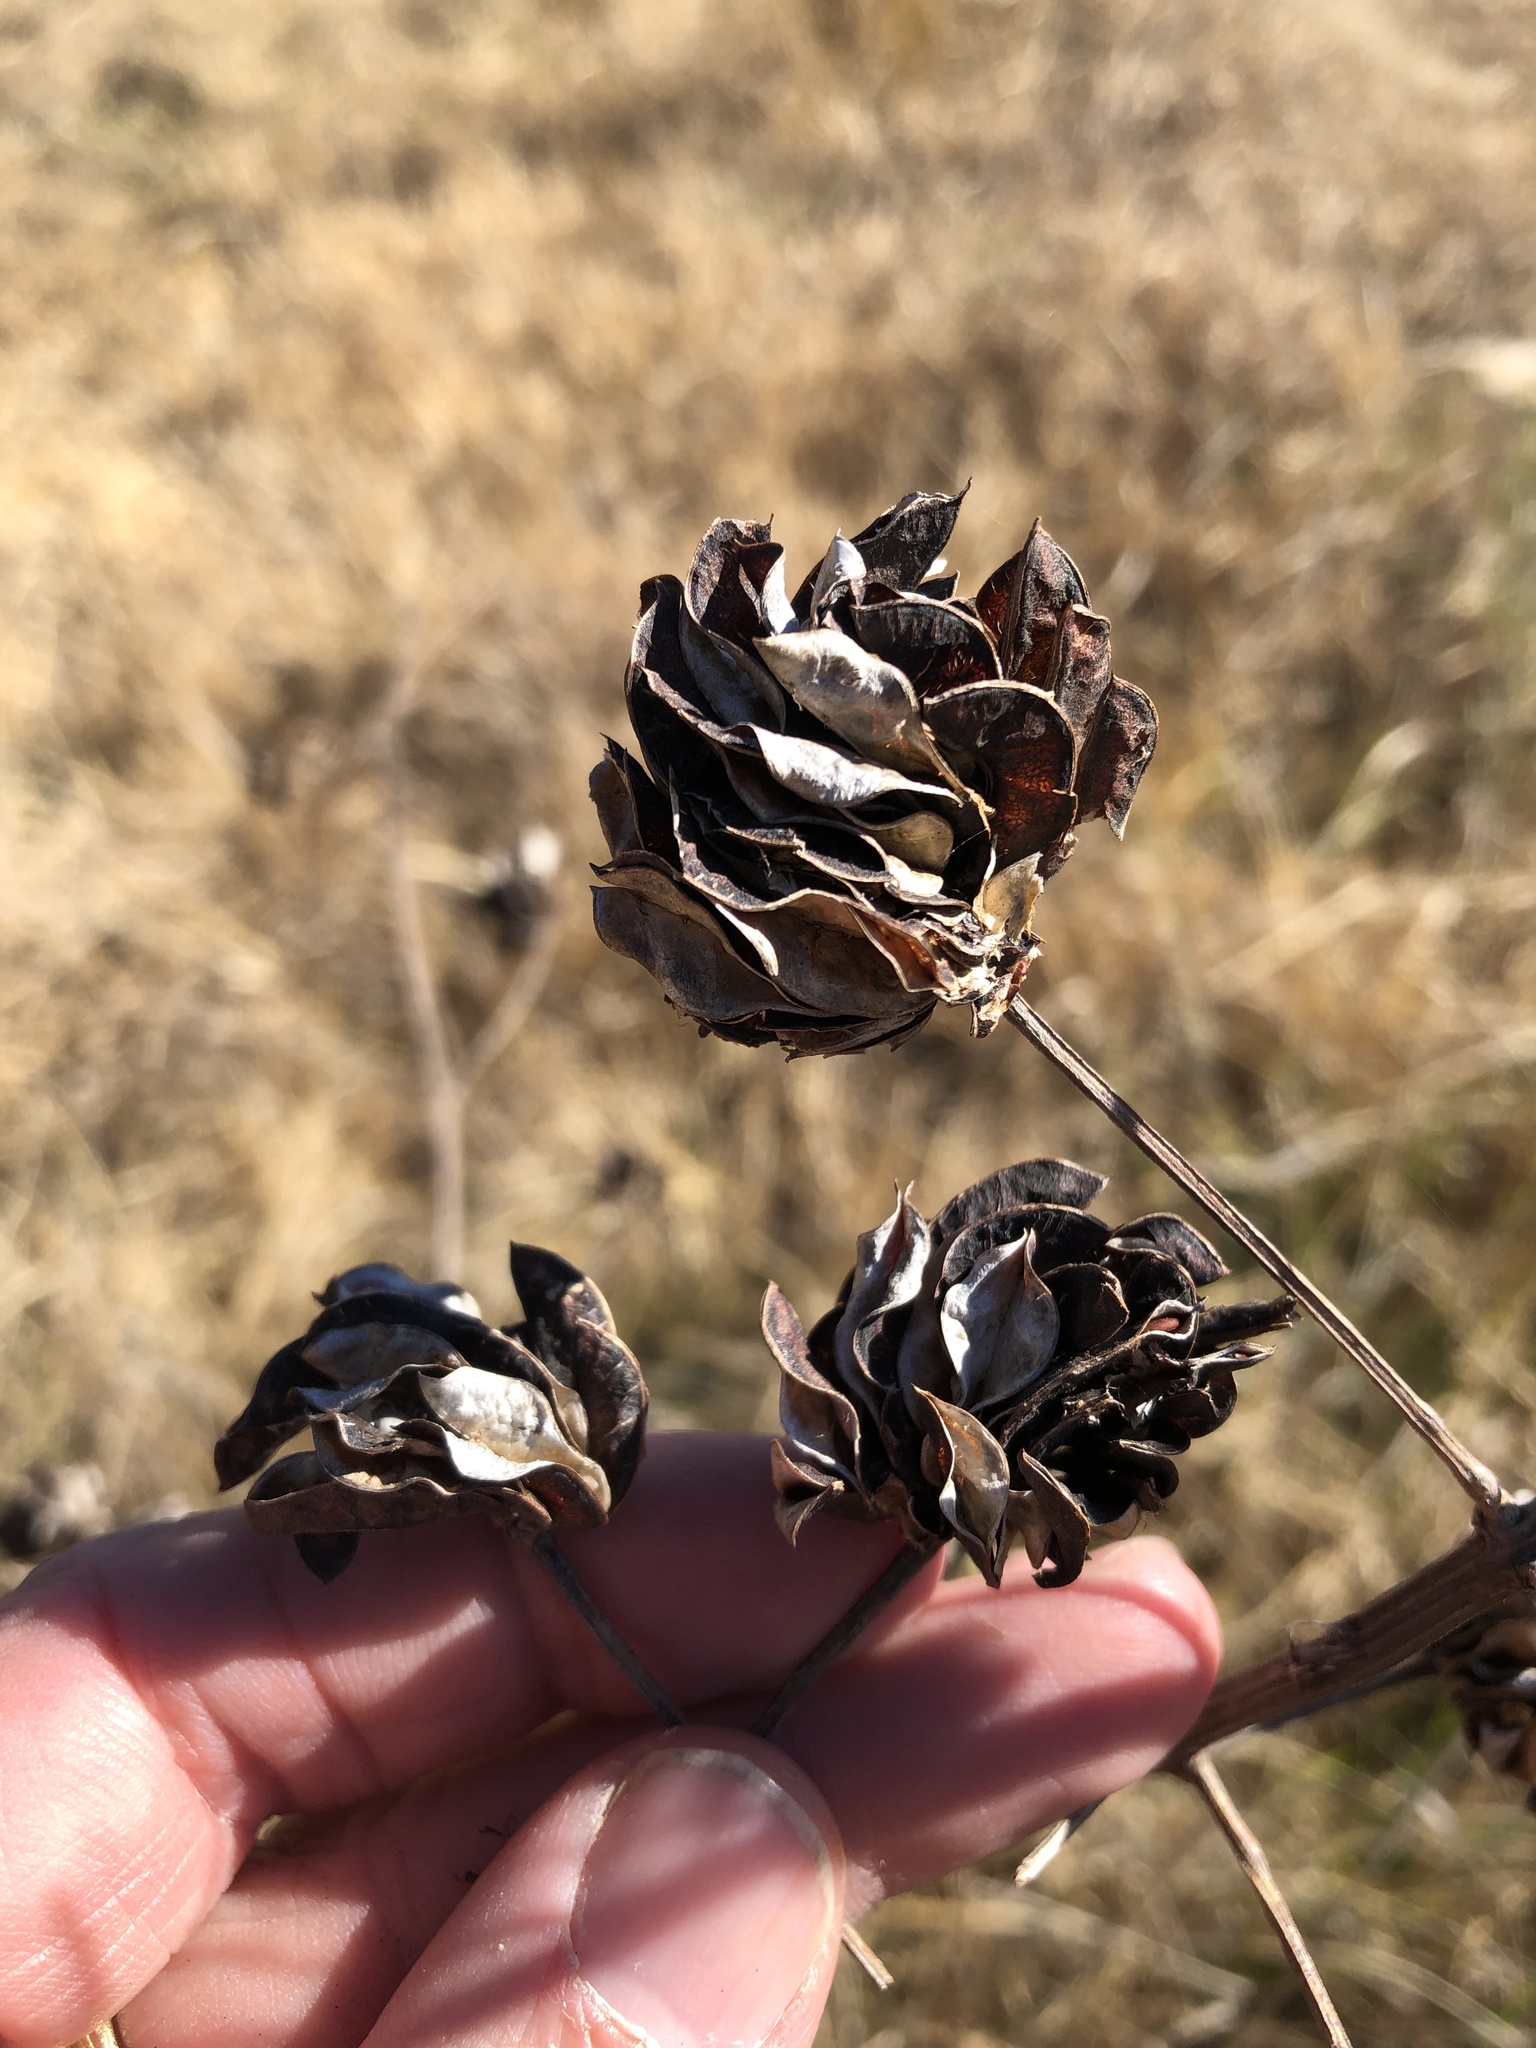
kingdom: Plantae
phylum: Tracheophyta
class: Magnoliopsida
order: Fabales
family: Fabaceae
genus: Desmanthus
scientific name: Desmanthus illinoensis
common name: Illinois bundle-flower
